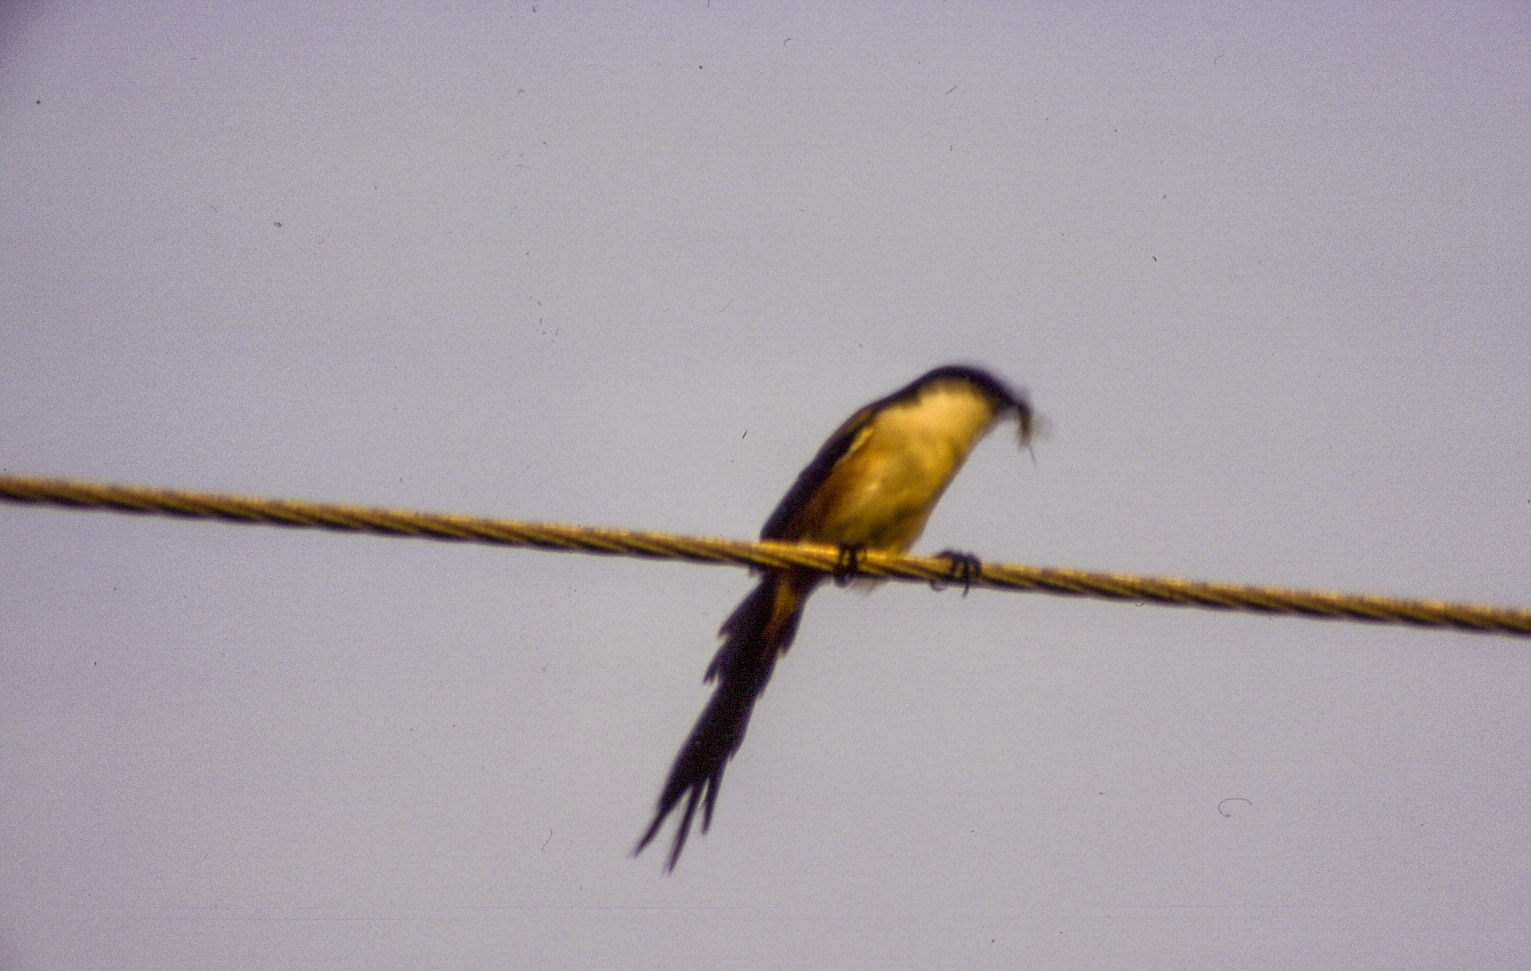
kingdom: Animalia
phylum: Chordata
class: Aves
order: Passeriformes
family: Laniidae
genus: Lanius
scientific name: Lanius schach
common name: Long-tailed shrike
